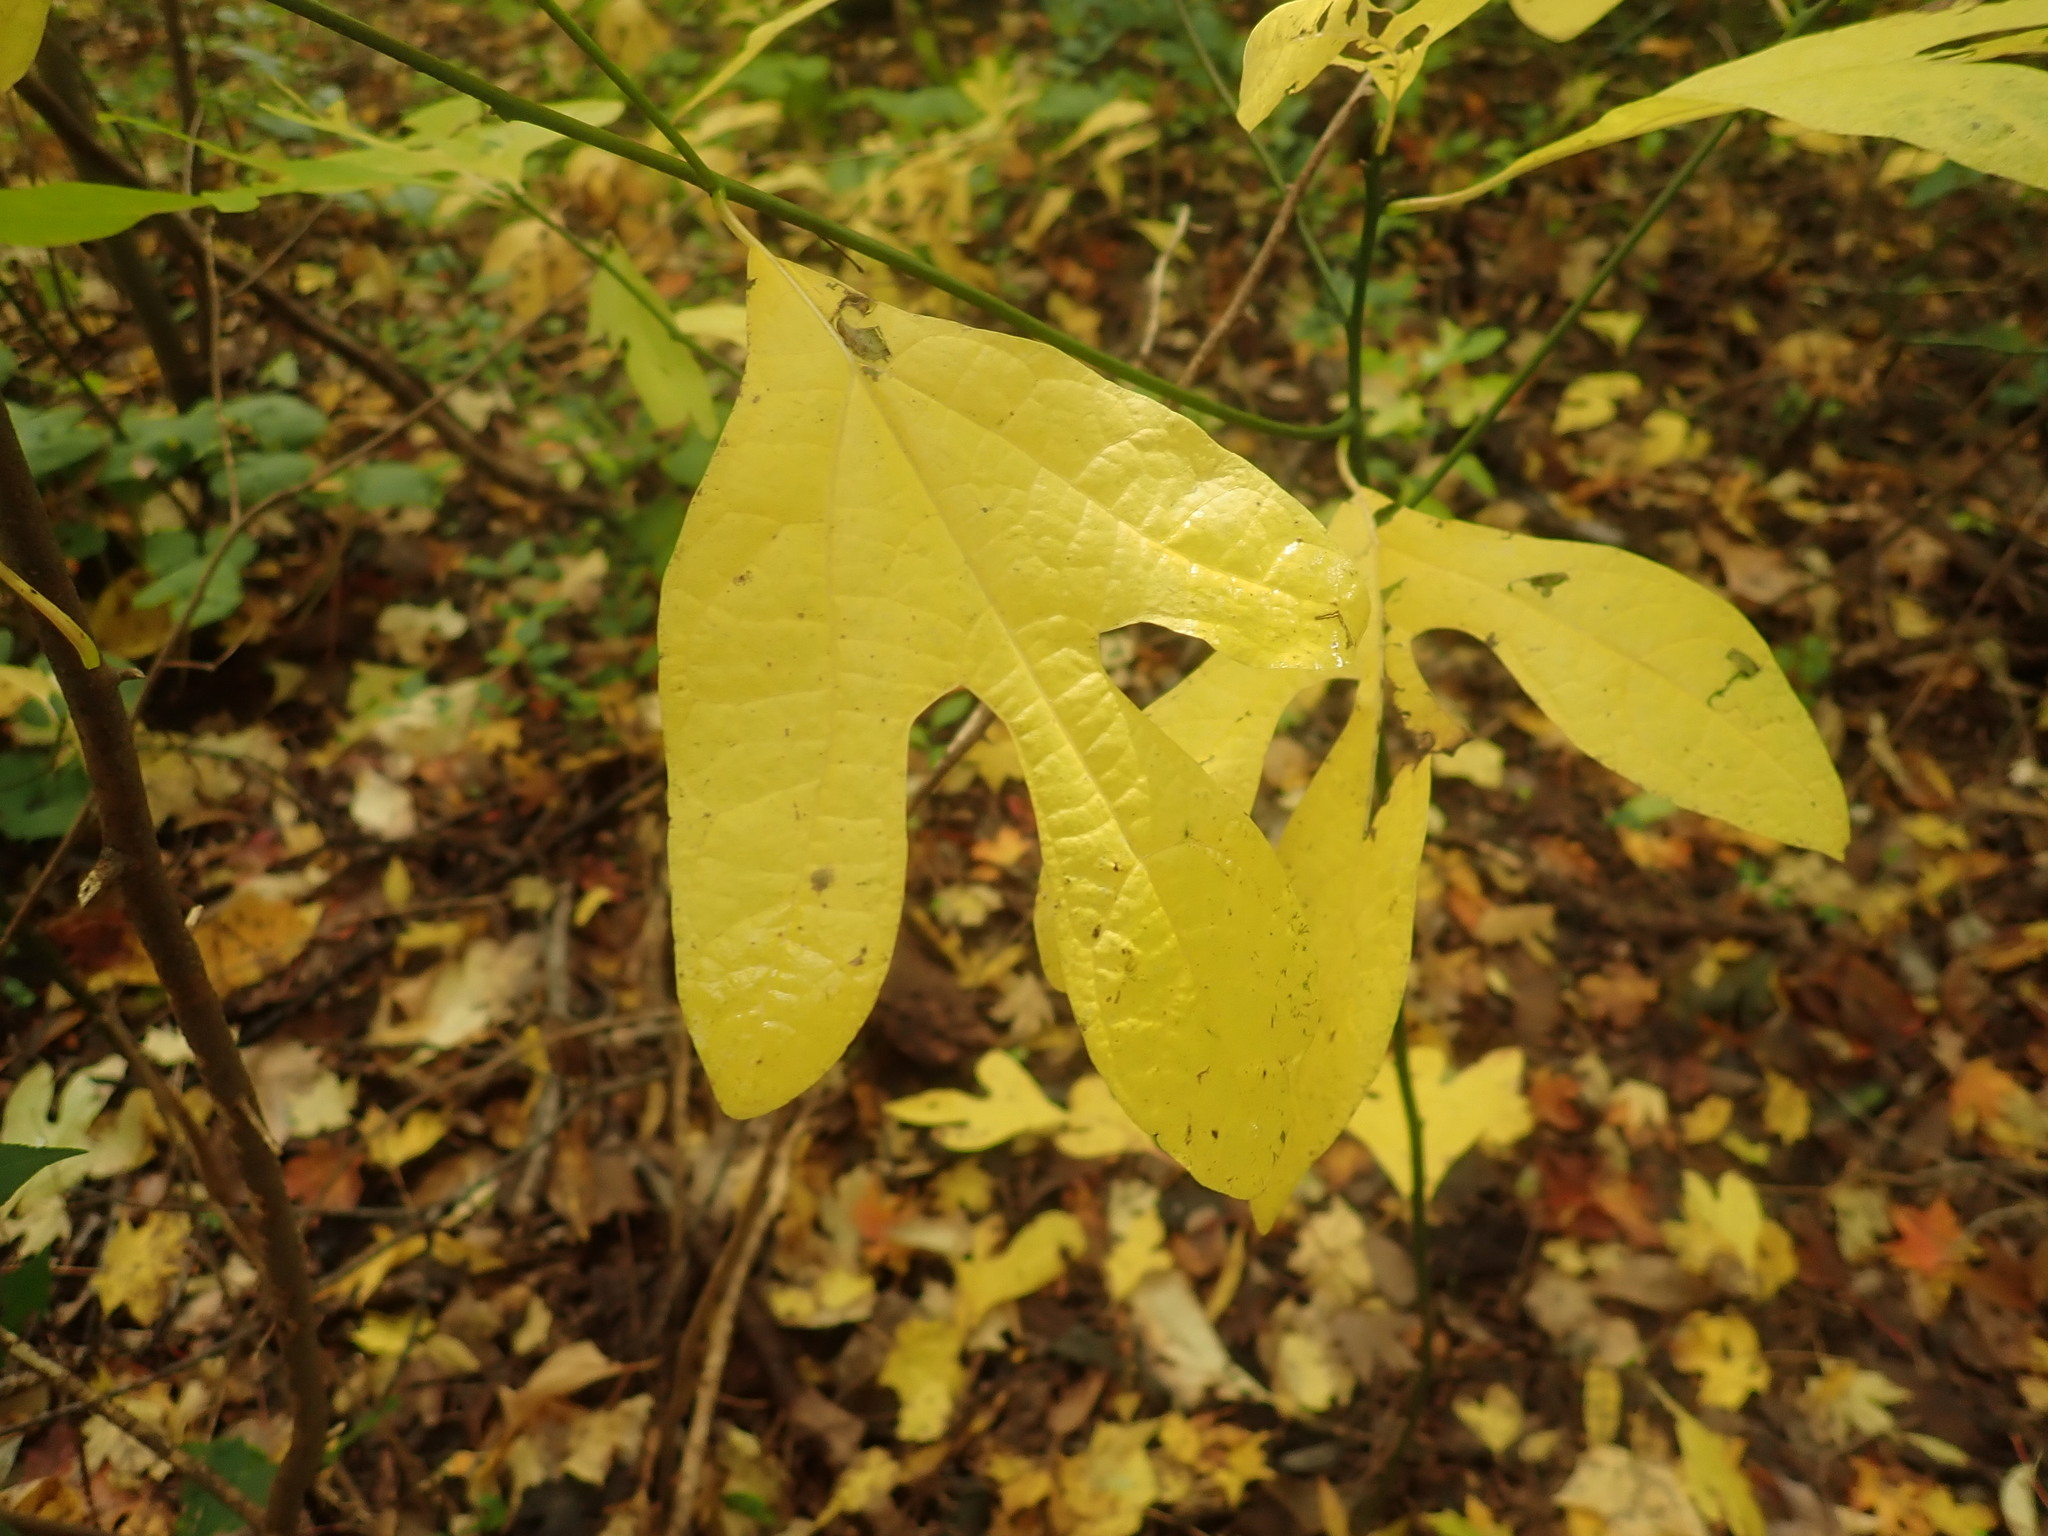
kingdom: Plantae
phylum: Tracheophyta
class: Magnoliopsida
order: Laurales
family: Lauraceae
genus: Sassafras
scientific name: Sassafras albidum
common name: Sassafras
